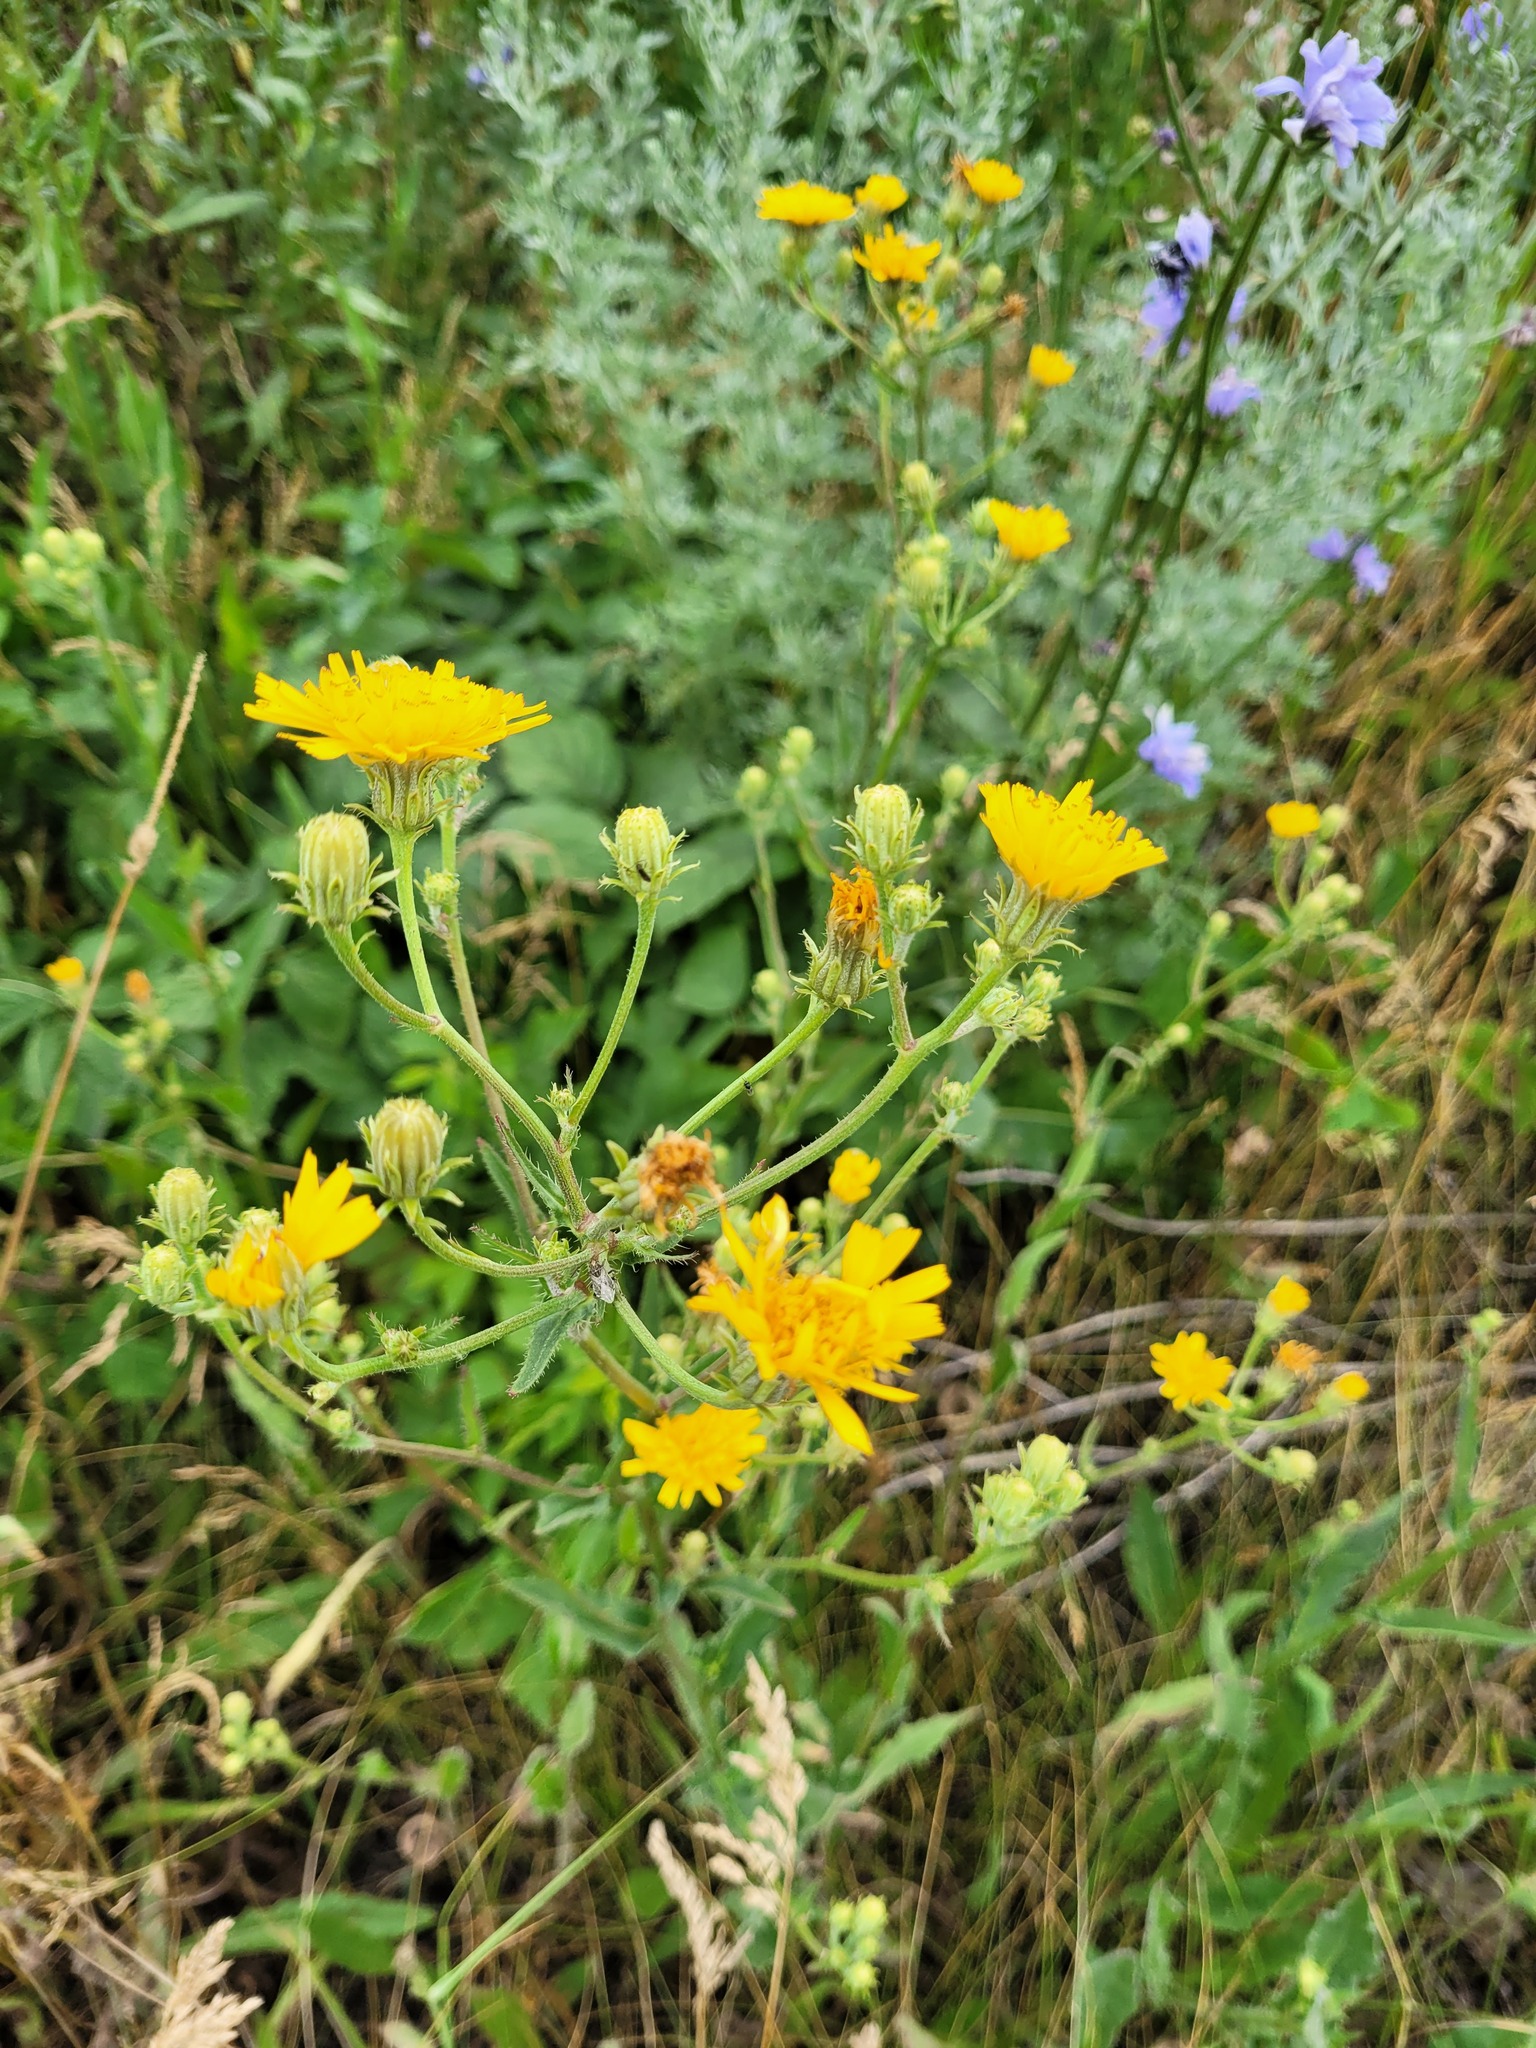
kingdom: Plantae
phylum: Tracheophyta
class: Magnoliopsida
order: Asterales
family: Asteraceae
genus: Picris
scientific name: Picris hieracioides
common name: Hawkweed oxtongue
